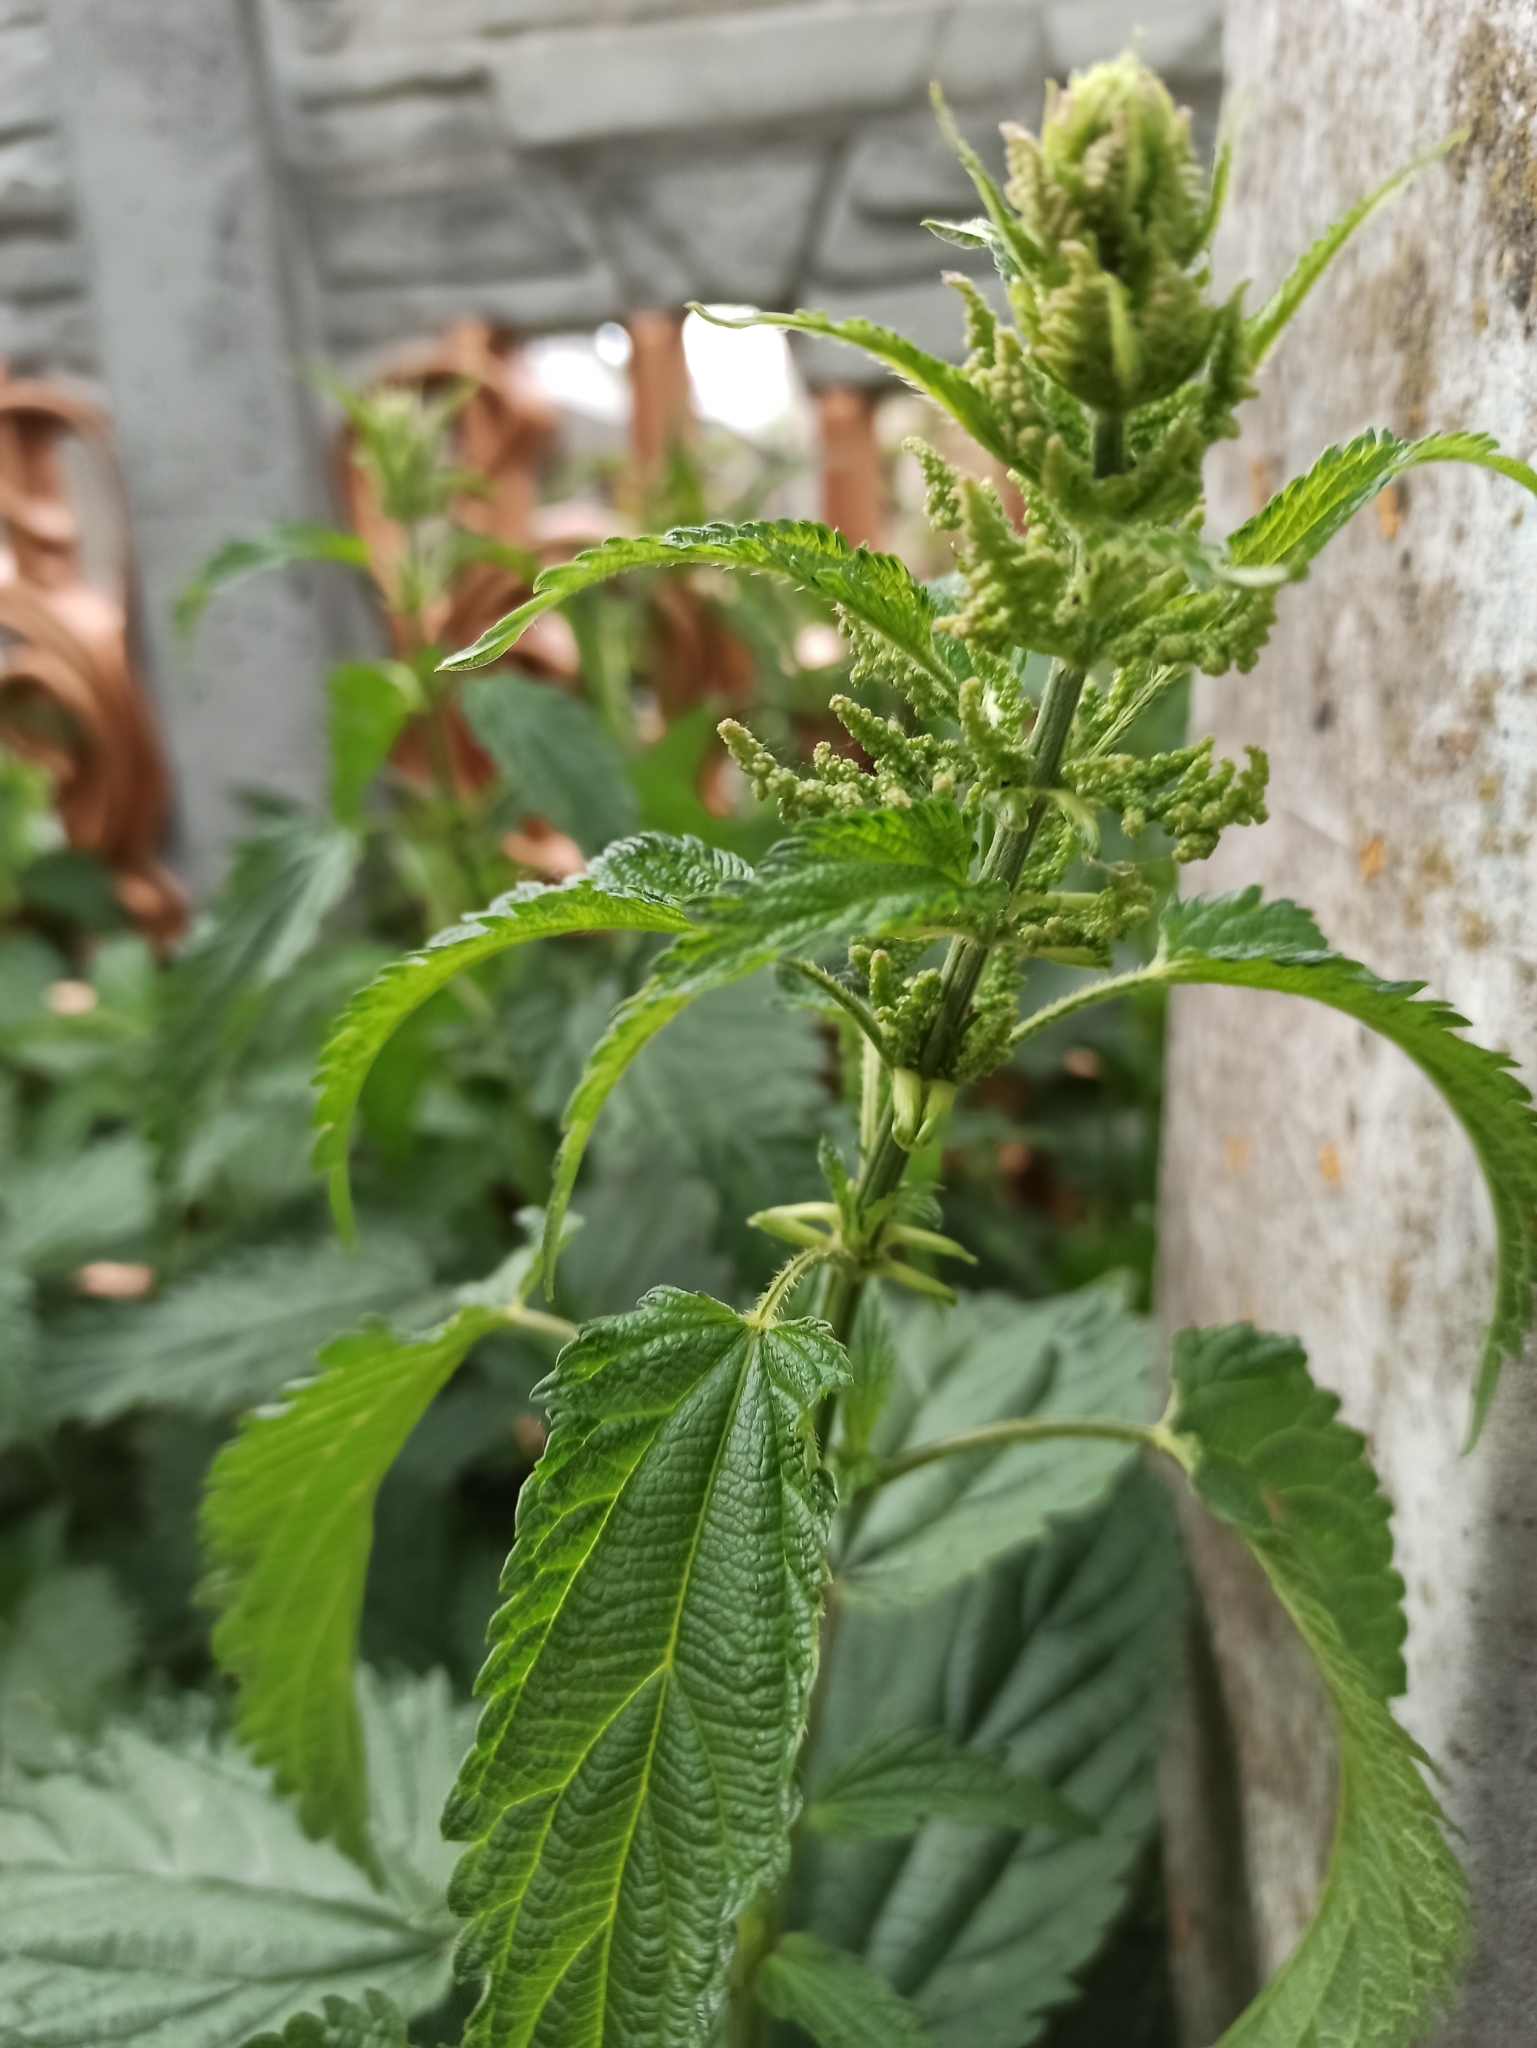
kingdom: Plantae
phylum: Tracheophyta
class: Magnoliopsida
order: Rosales
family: Urticaceae
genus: Urtica
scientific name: Urtica dioica
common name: Common nettle
